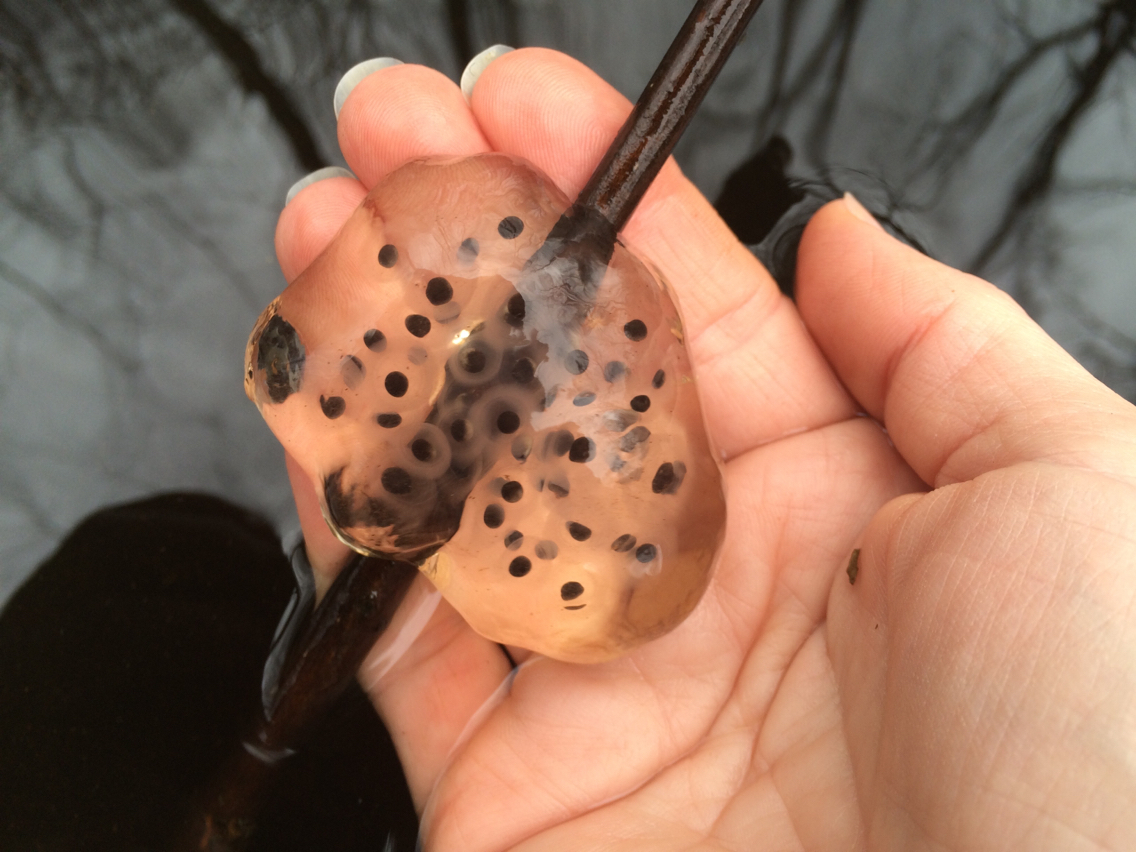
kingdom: Animalia
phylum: Chordata
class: Amphibia
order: Caudata
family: Ambystomatidae
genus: Ambystoma
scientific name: Ambystoma maculatum
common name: Spotted salamander
